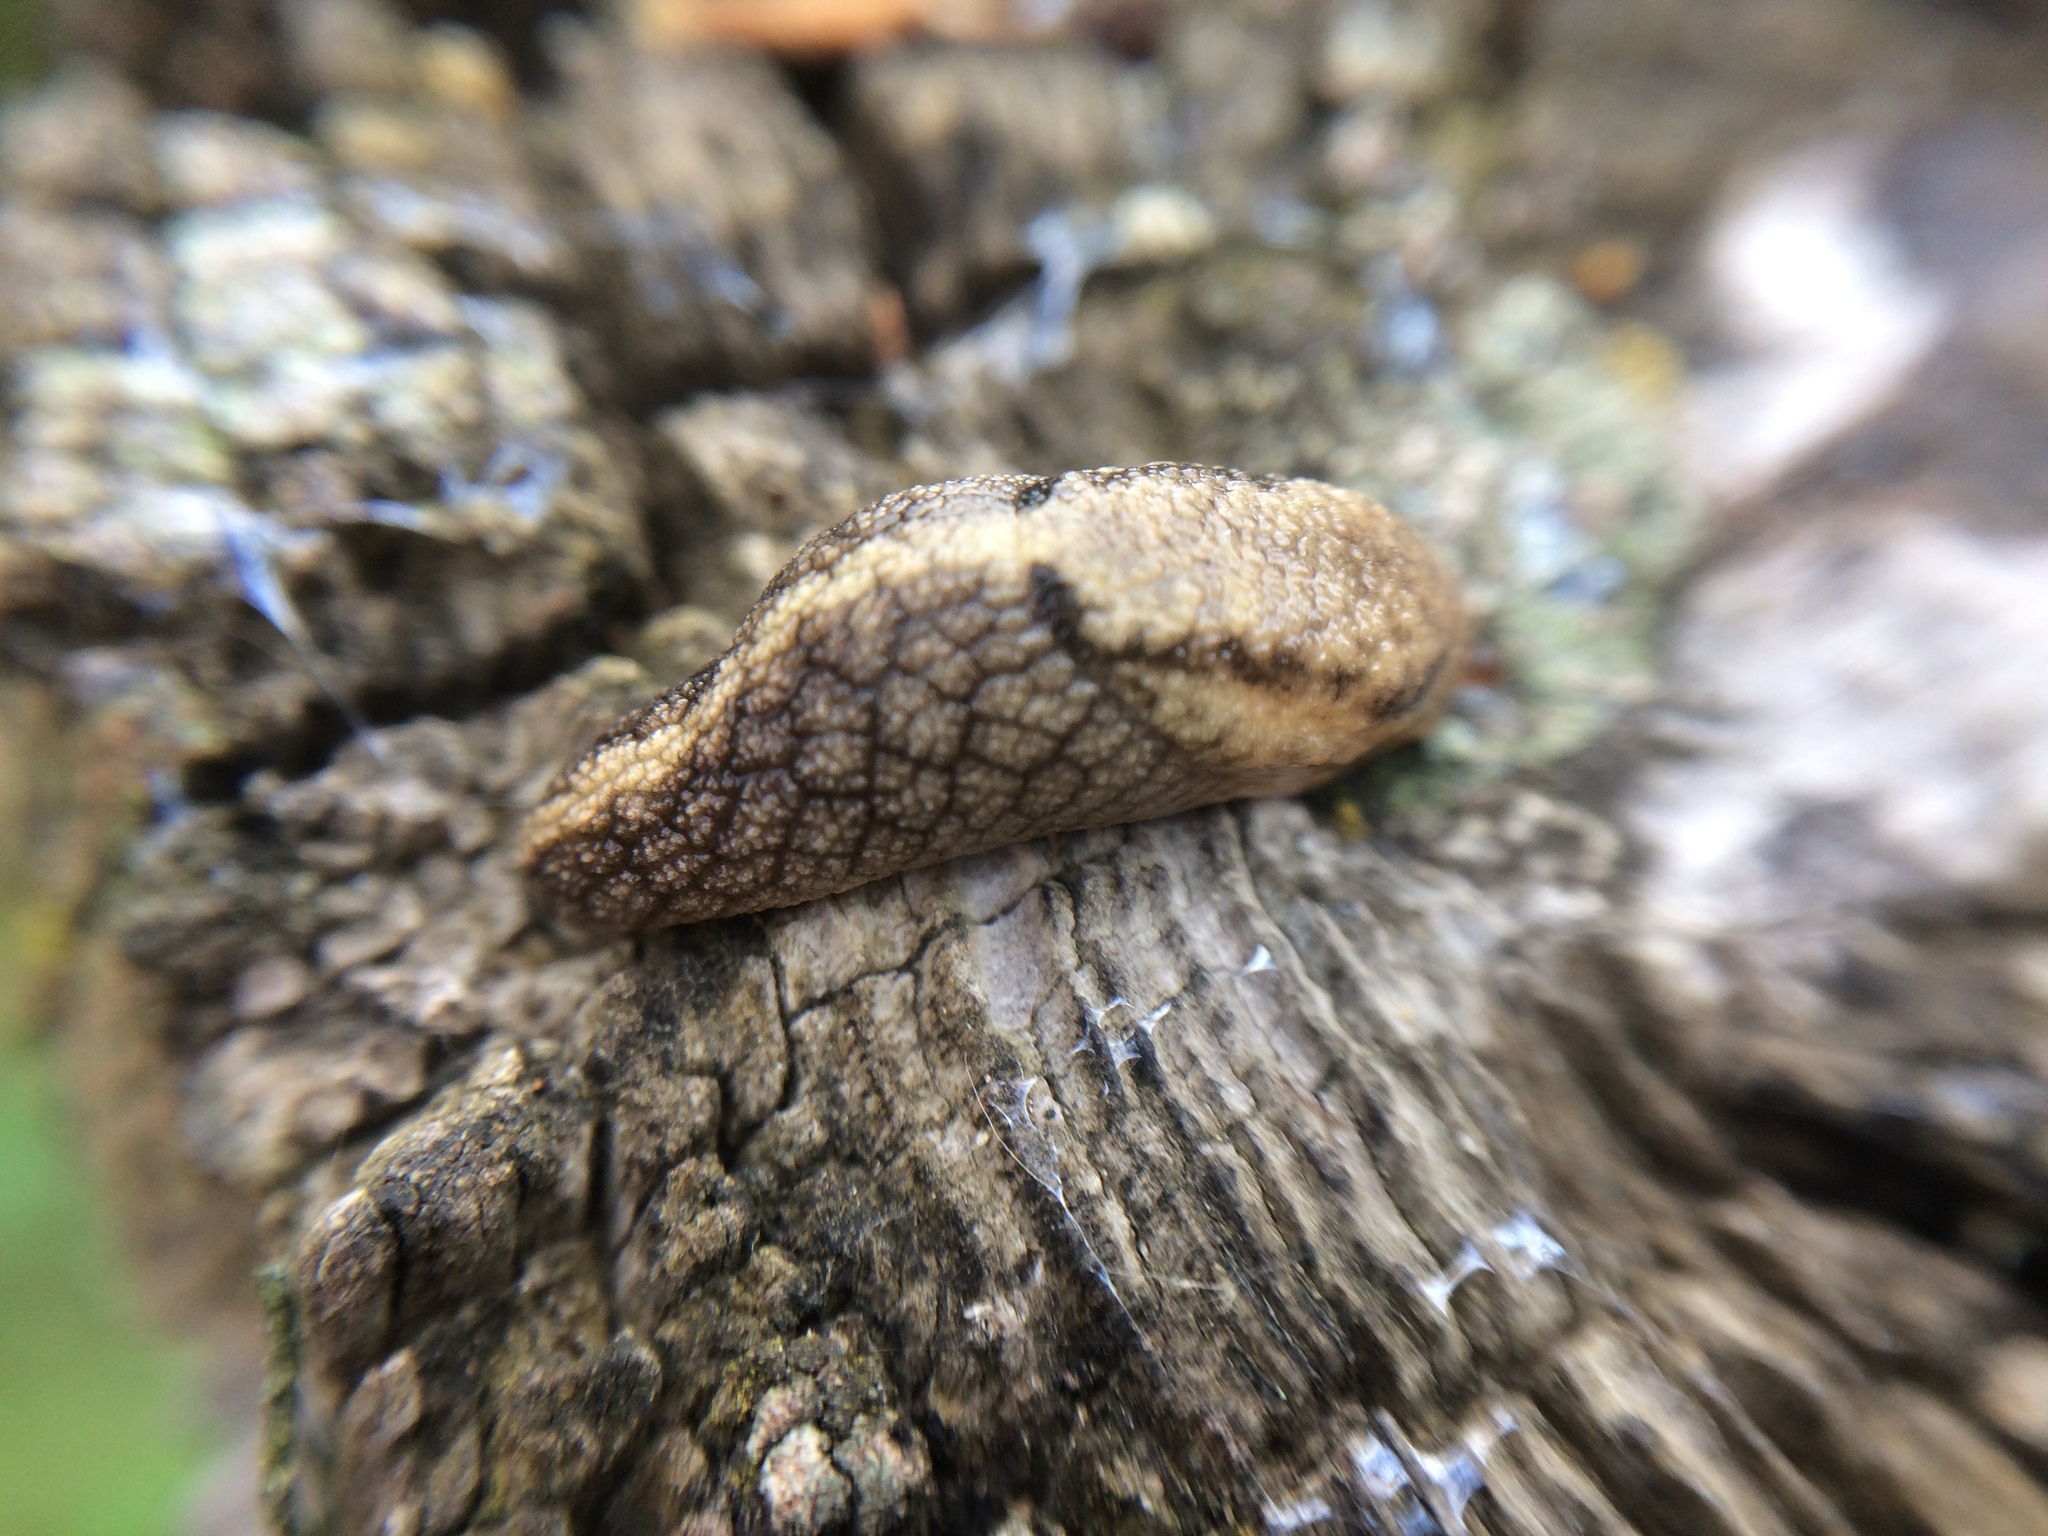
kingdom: Animalia
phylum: Mollusca
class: Gastropoda
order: Stylommatophora
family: Ariolimacidae
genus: Prophysaon
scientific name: Prophysaon andersonii
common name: Reticulate taildropper
